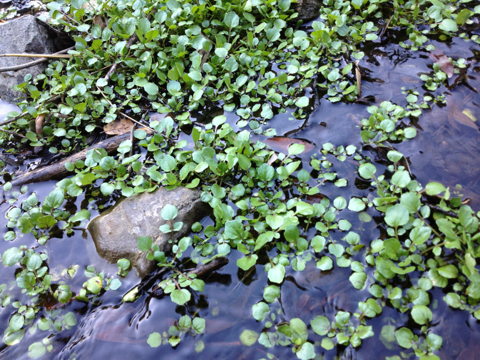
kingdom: Plantae
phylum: Tracheophyta
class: Magnoliopsida
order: Brassicales
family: Brassicaceae
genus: Nasturtium
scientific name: Nasturtium officinale
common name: Watercress
